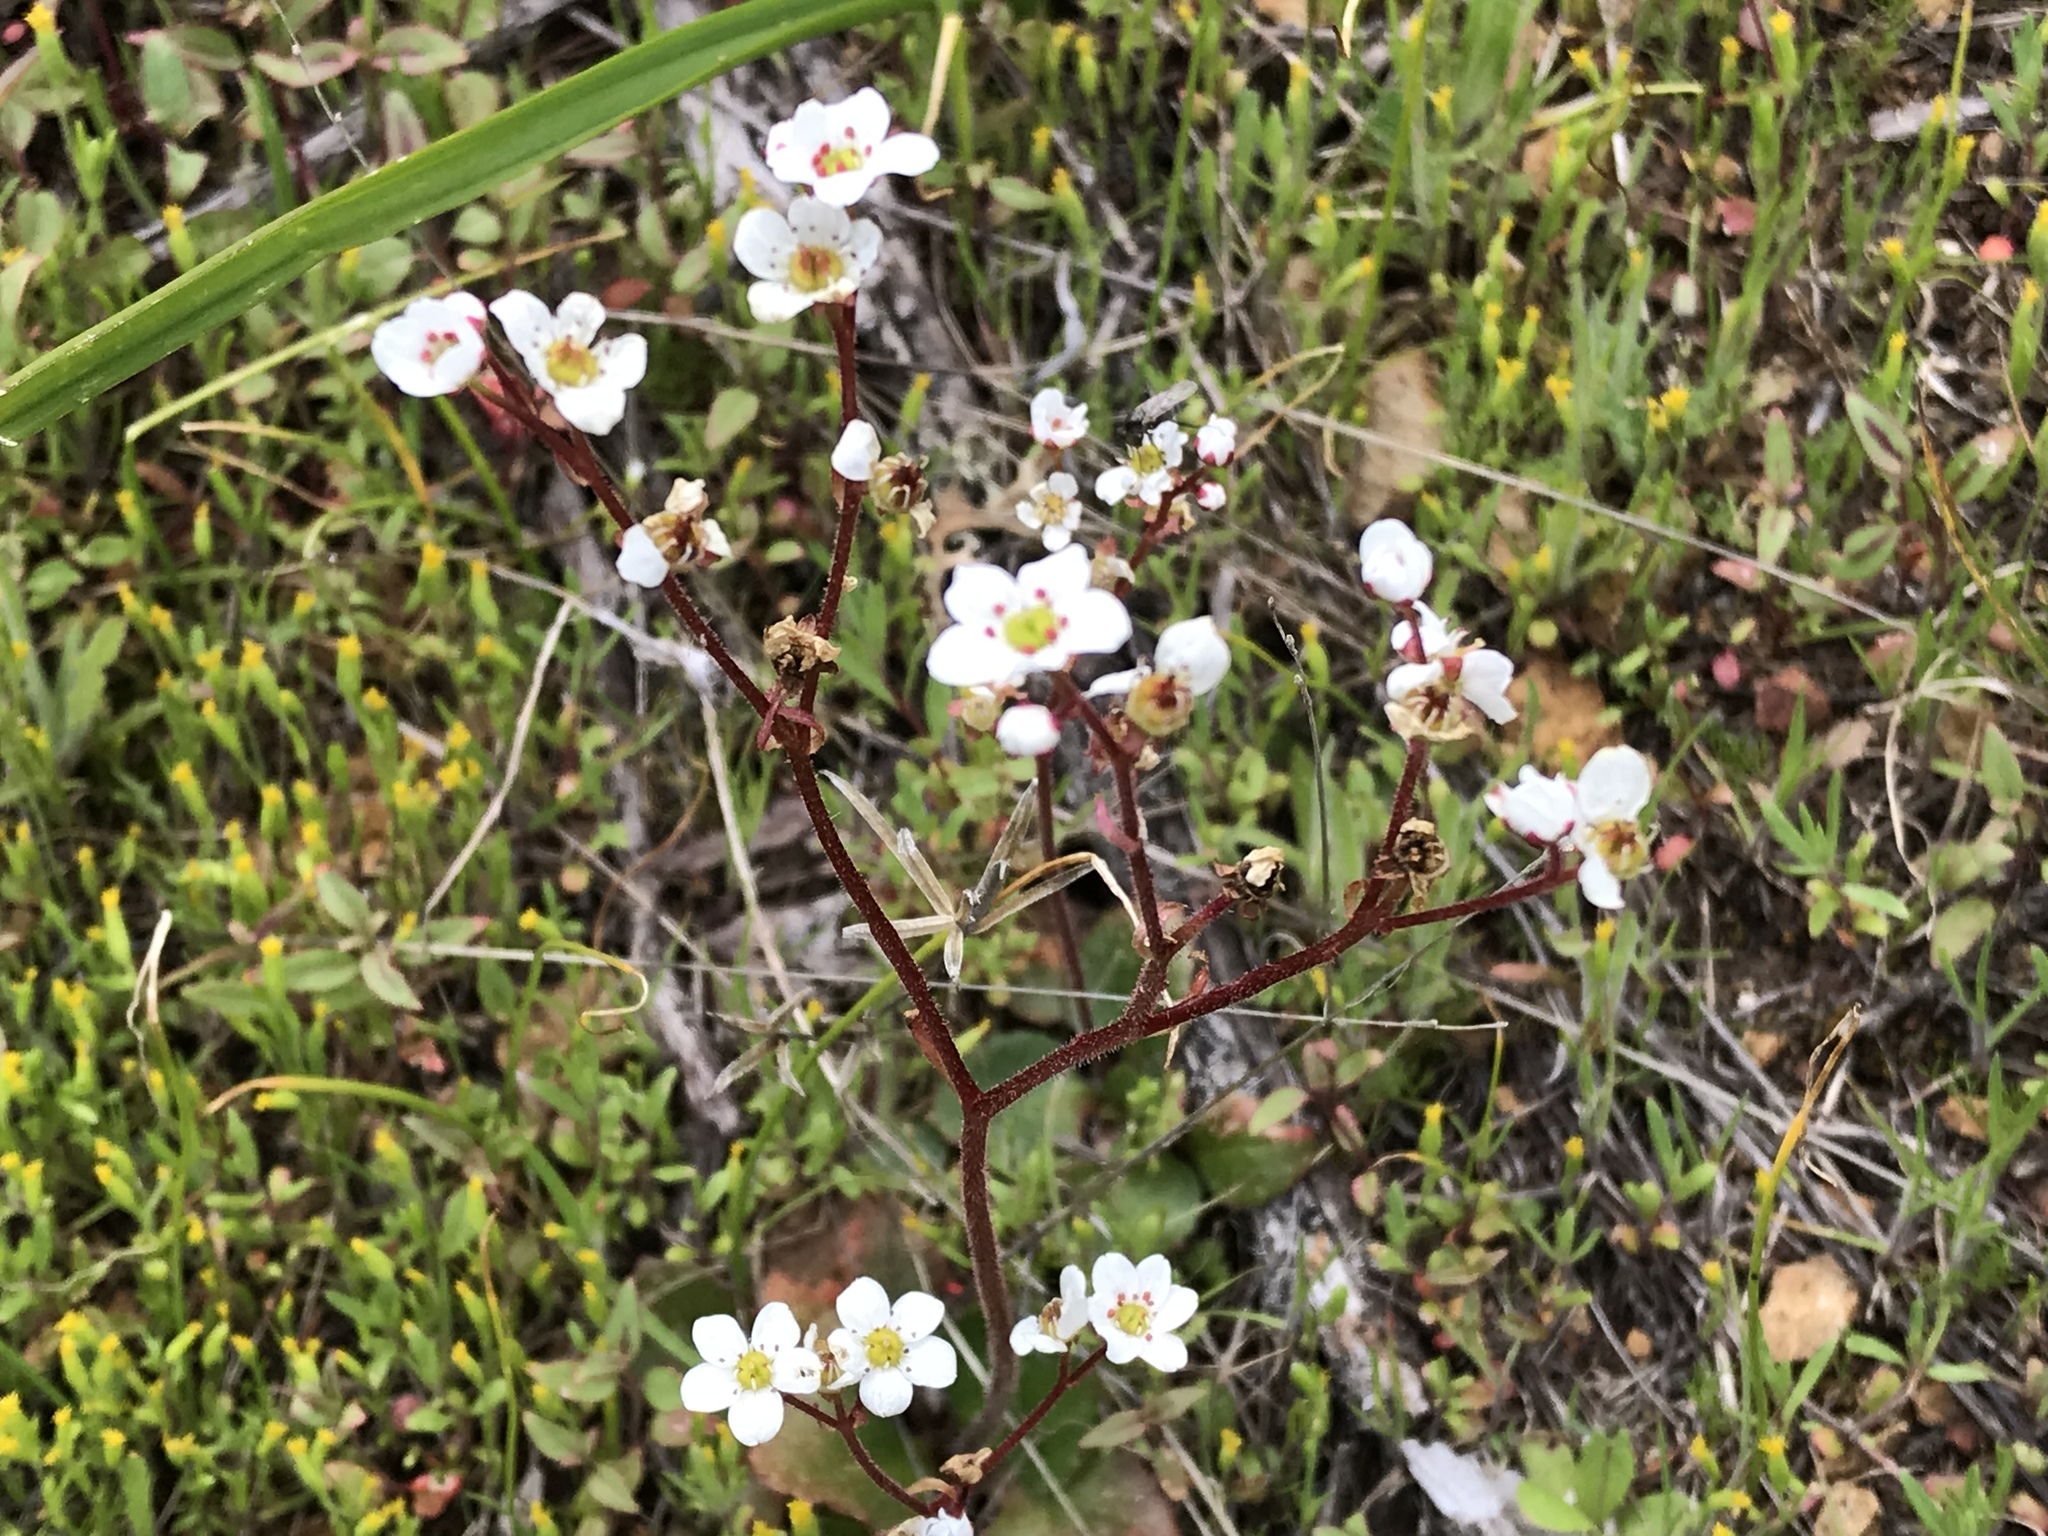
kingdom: Plantae
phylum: Tracheophyta
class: Magnoliopsida
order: Saxifragales
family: Saxifragaceae
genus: Micranthes
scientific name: Micranthes californica
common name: California saxifrage
